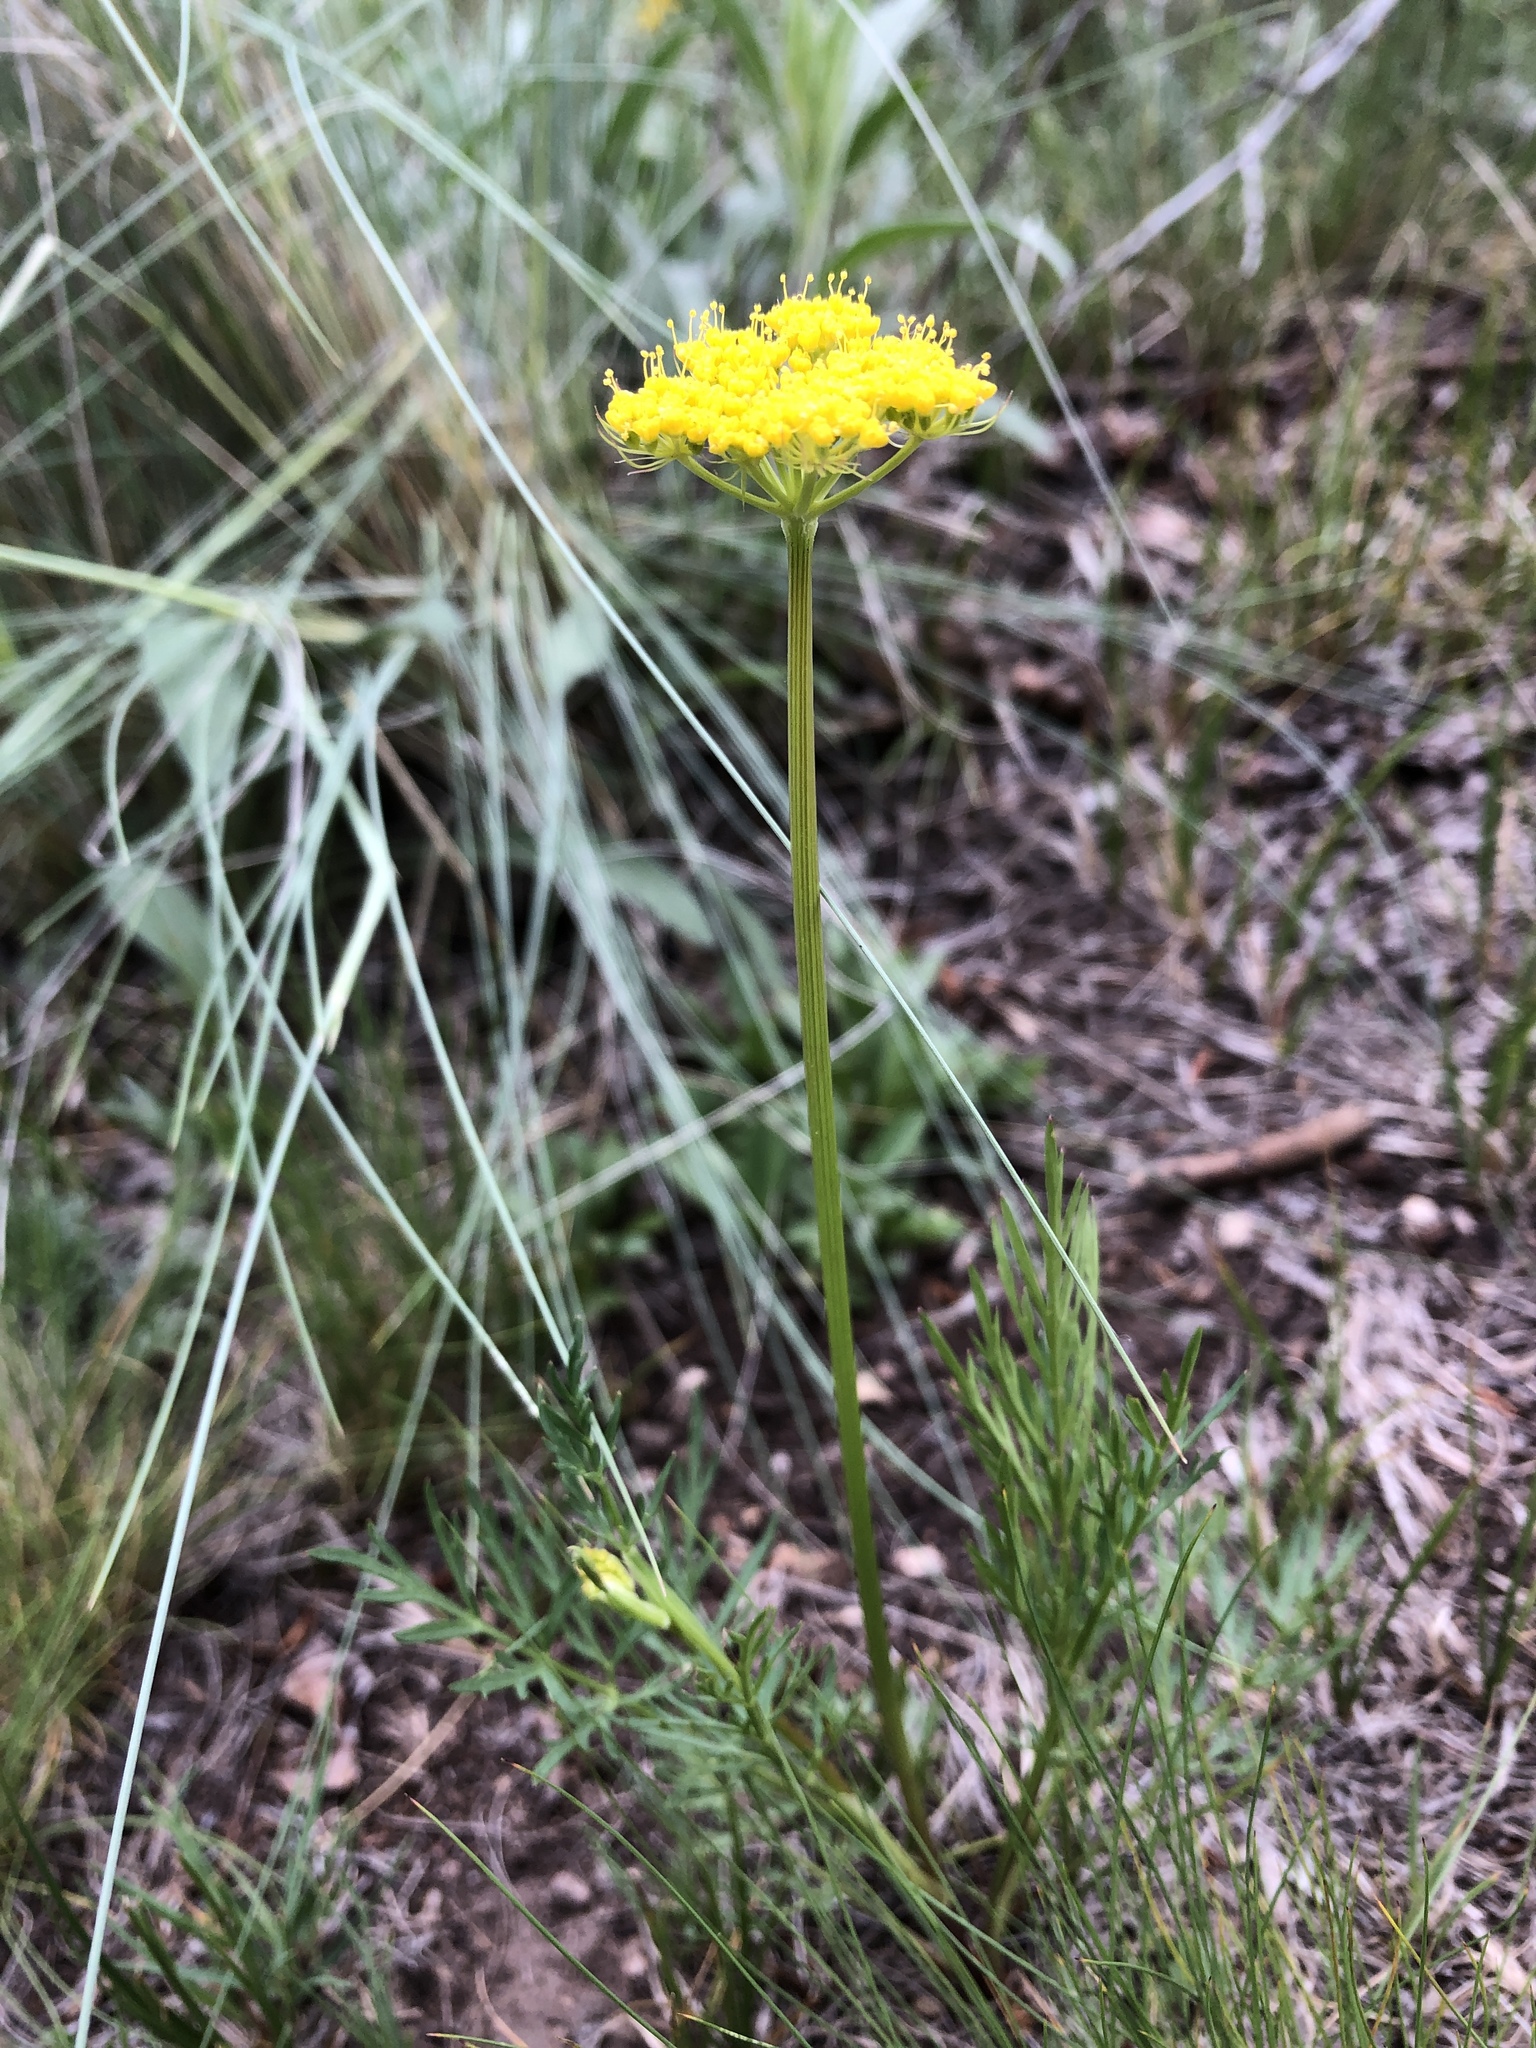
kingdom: Plantae
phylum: Tracheophyta
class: Magnoliopsida
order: Apiales
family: Apiaceae
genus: Cymopterus
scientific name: Cymopterus lemmonii
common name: Lemmon's spring-parsley
